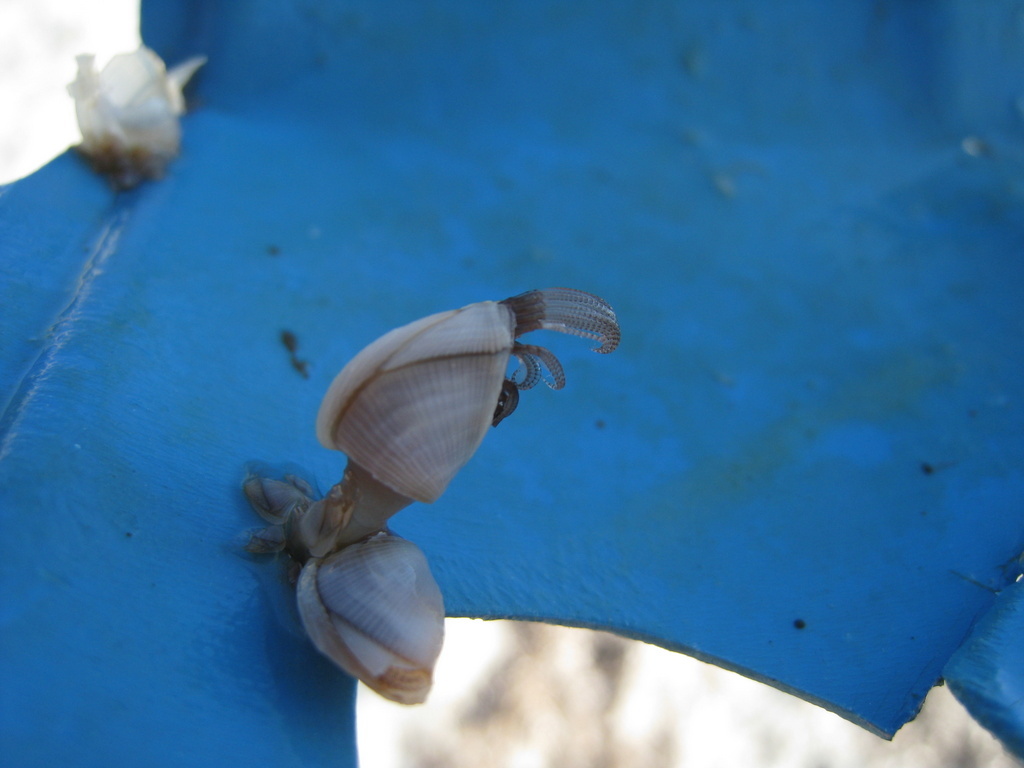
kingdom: Animalia
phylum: Arthropoda
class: Maxillopoda
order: Pedunculata
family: Lepadidae
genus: Lepas
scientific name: Lepas pectinata
